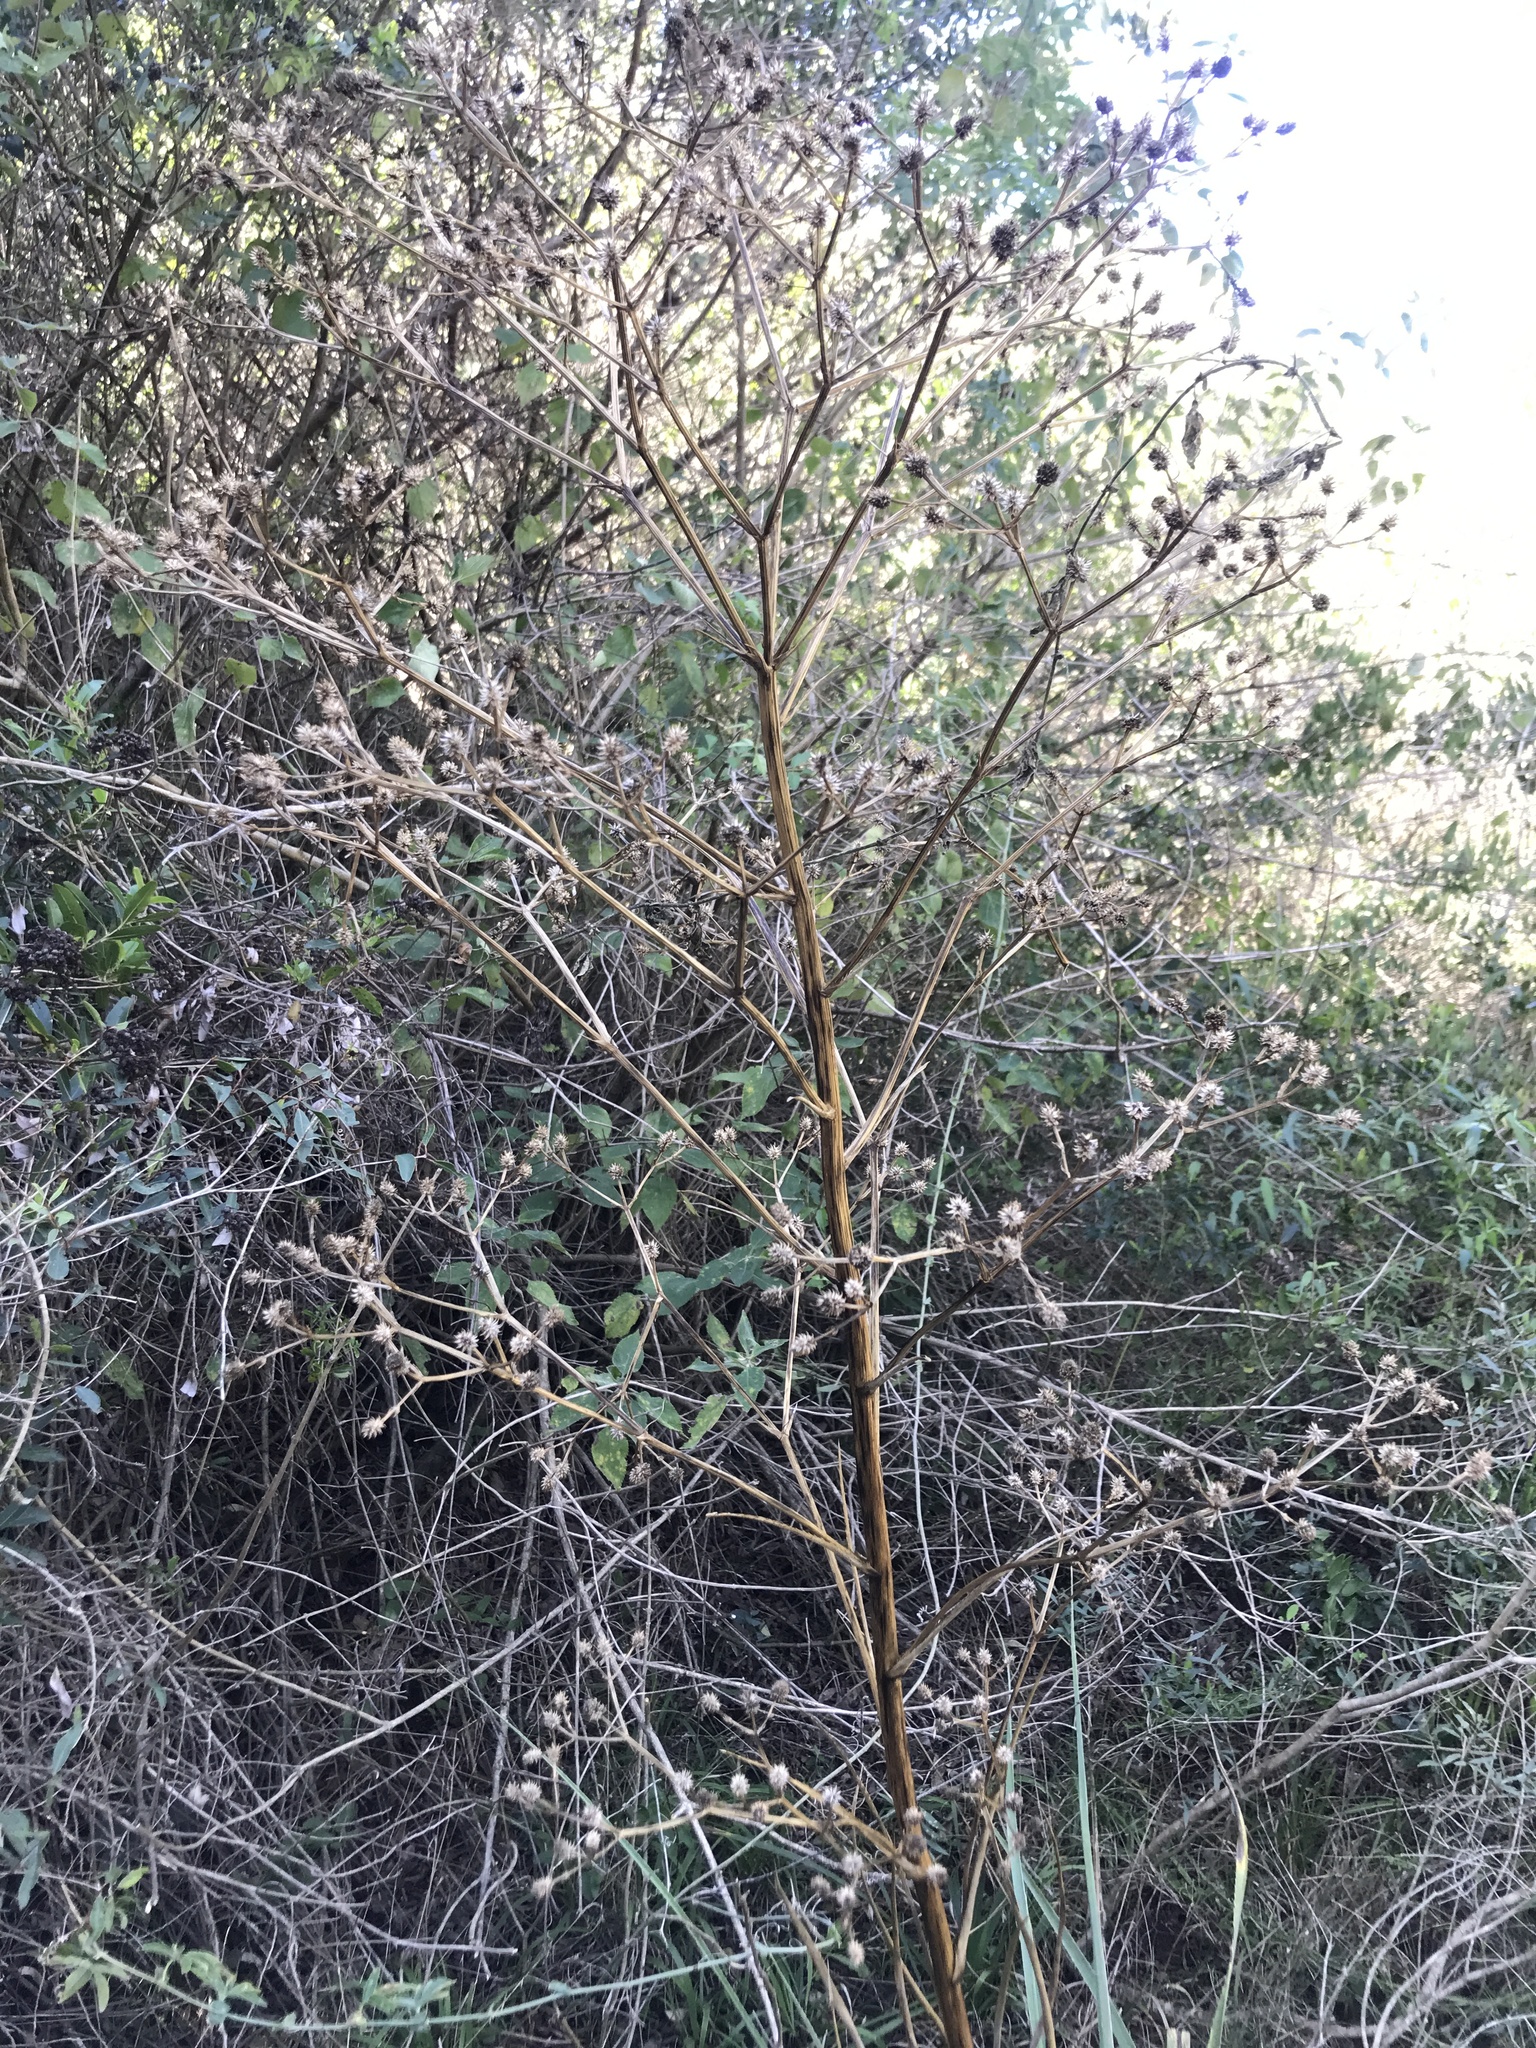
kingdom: Plantae
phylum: Tracheophyta
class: Magnoliopsida
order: Apiales
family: Apiaceae
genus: Eryngium
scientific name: Eryngium pandanifolium
